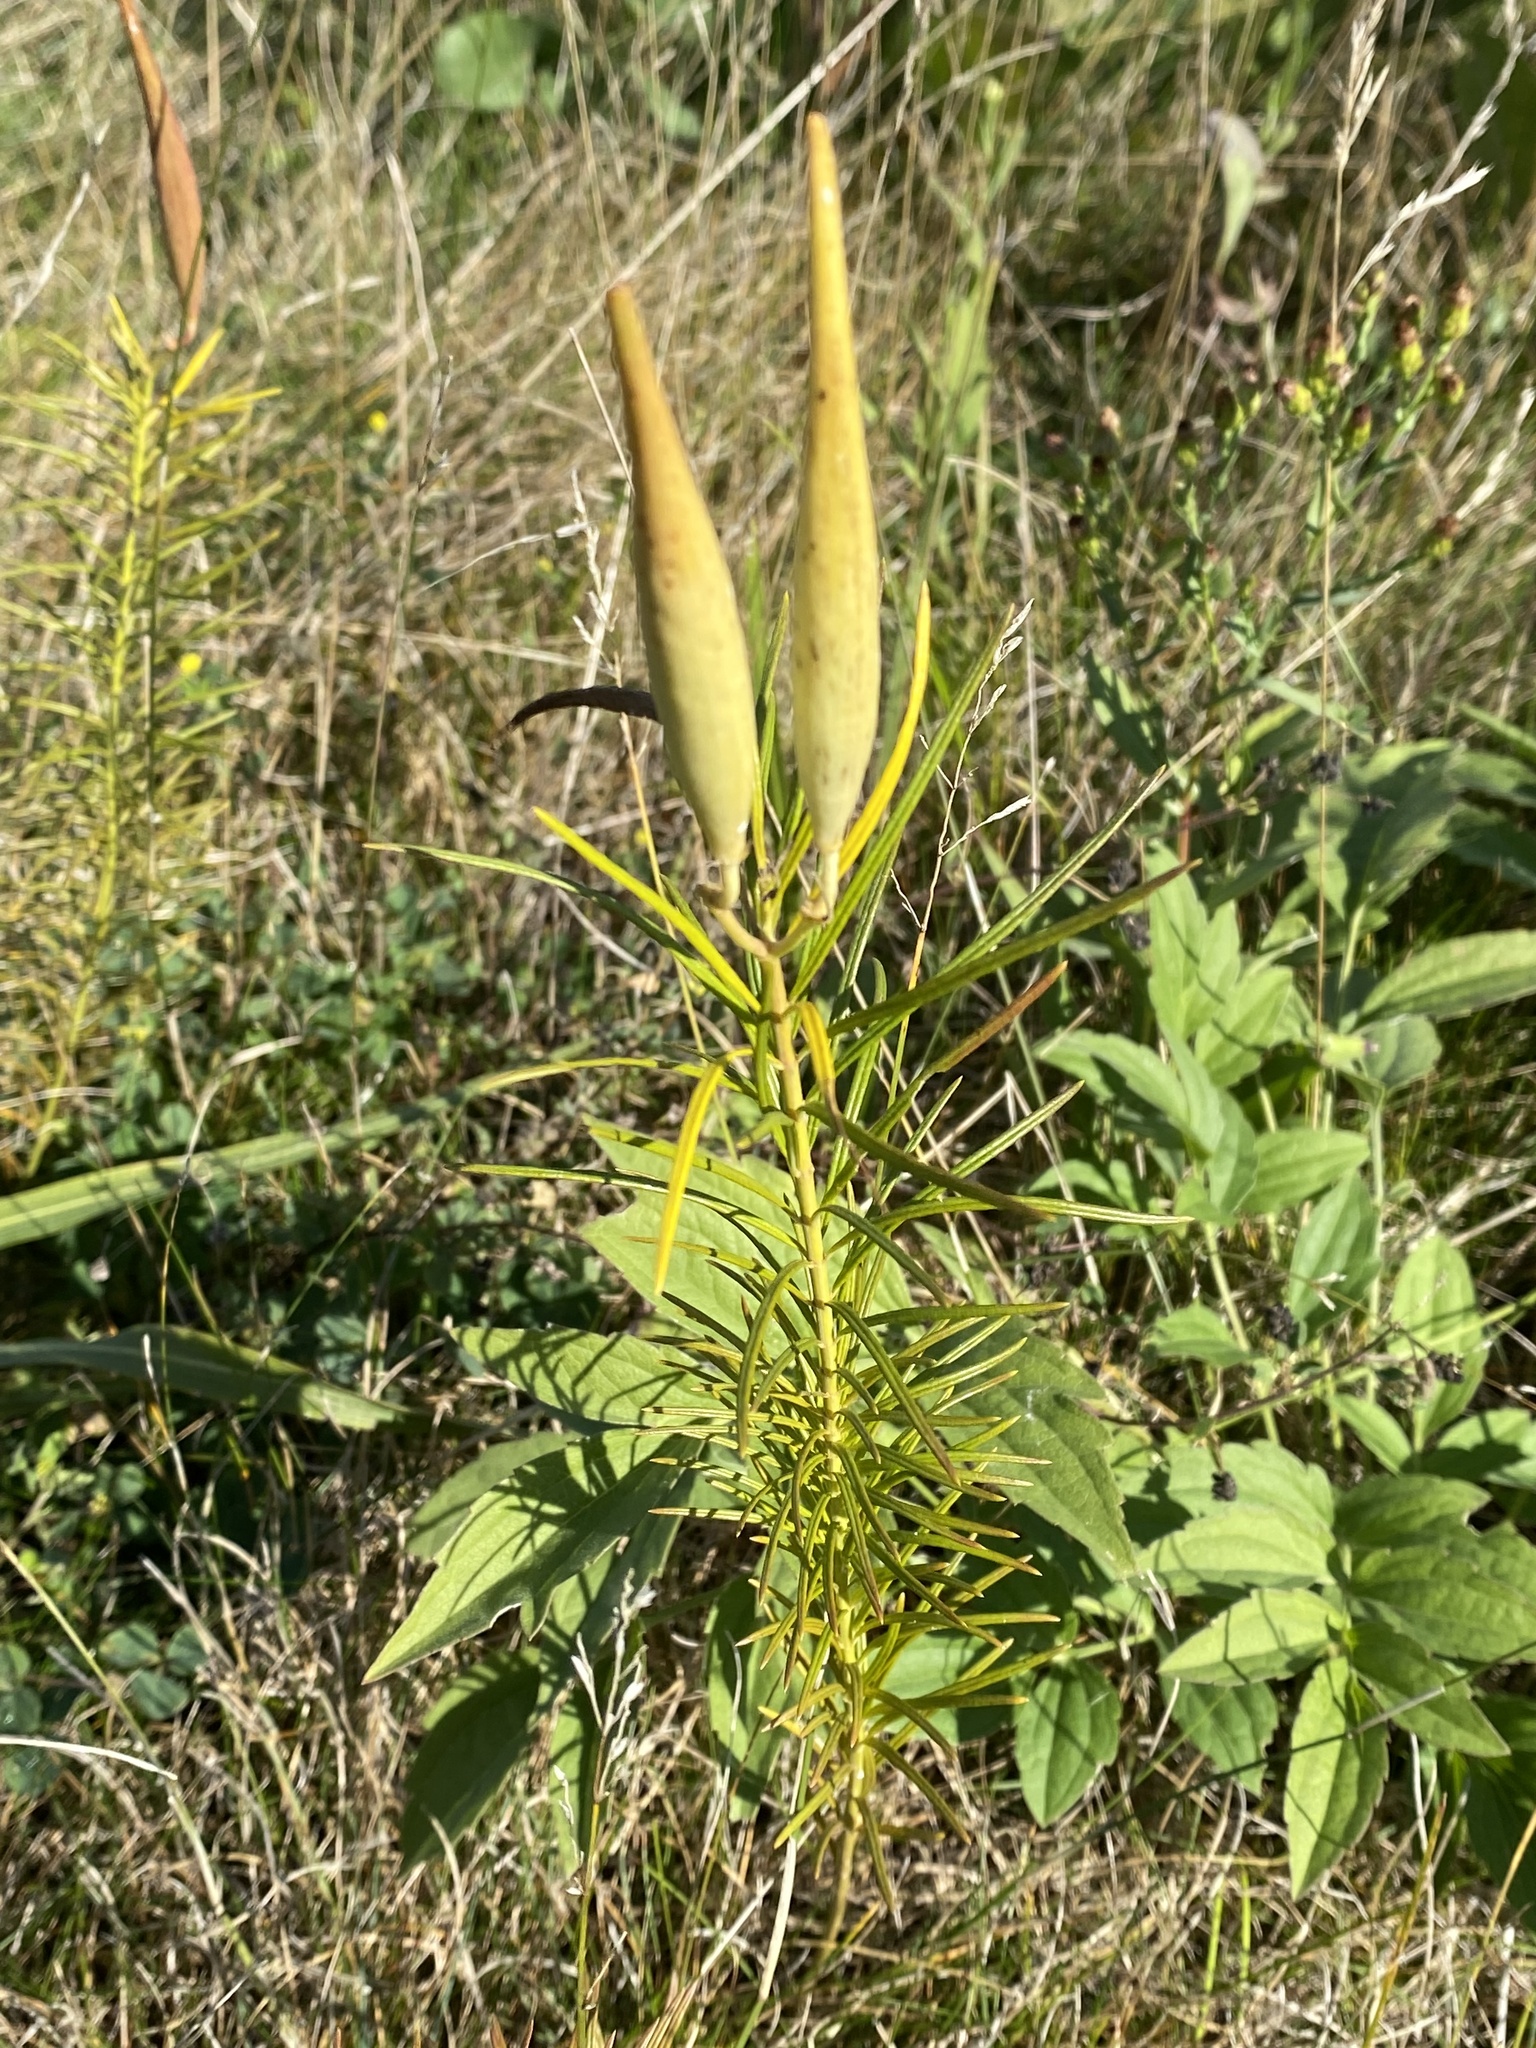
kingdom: Plantae
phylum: Tracheophyta
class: Magnoliopsida
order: Gentianales
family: Apocynaceae
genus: Asclepias
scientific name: Asclepias verticillata
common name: Eastern whorled milkweed
